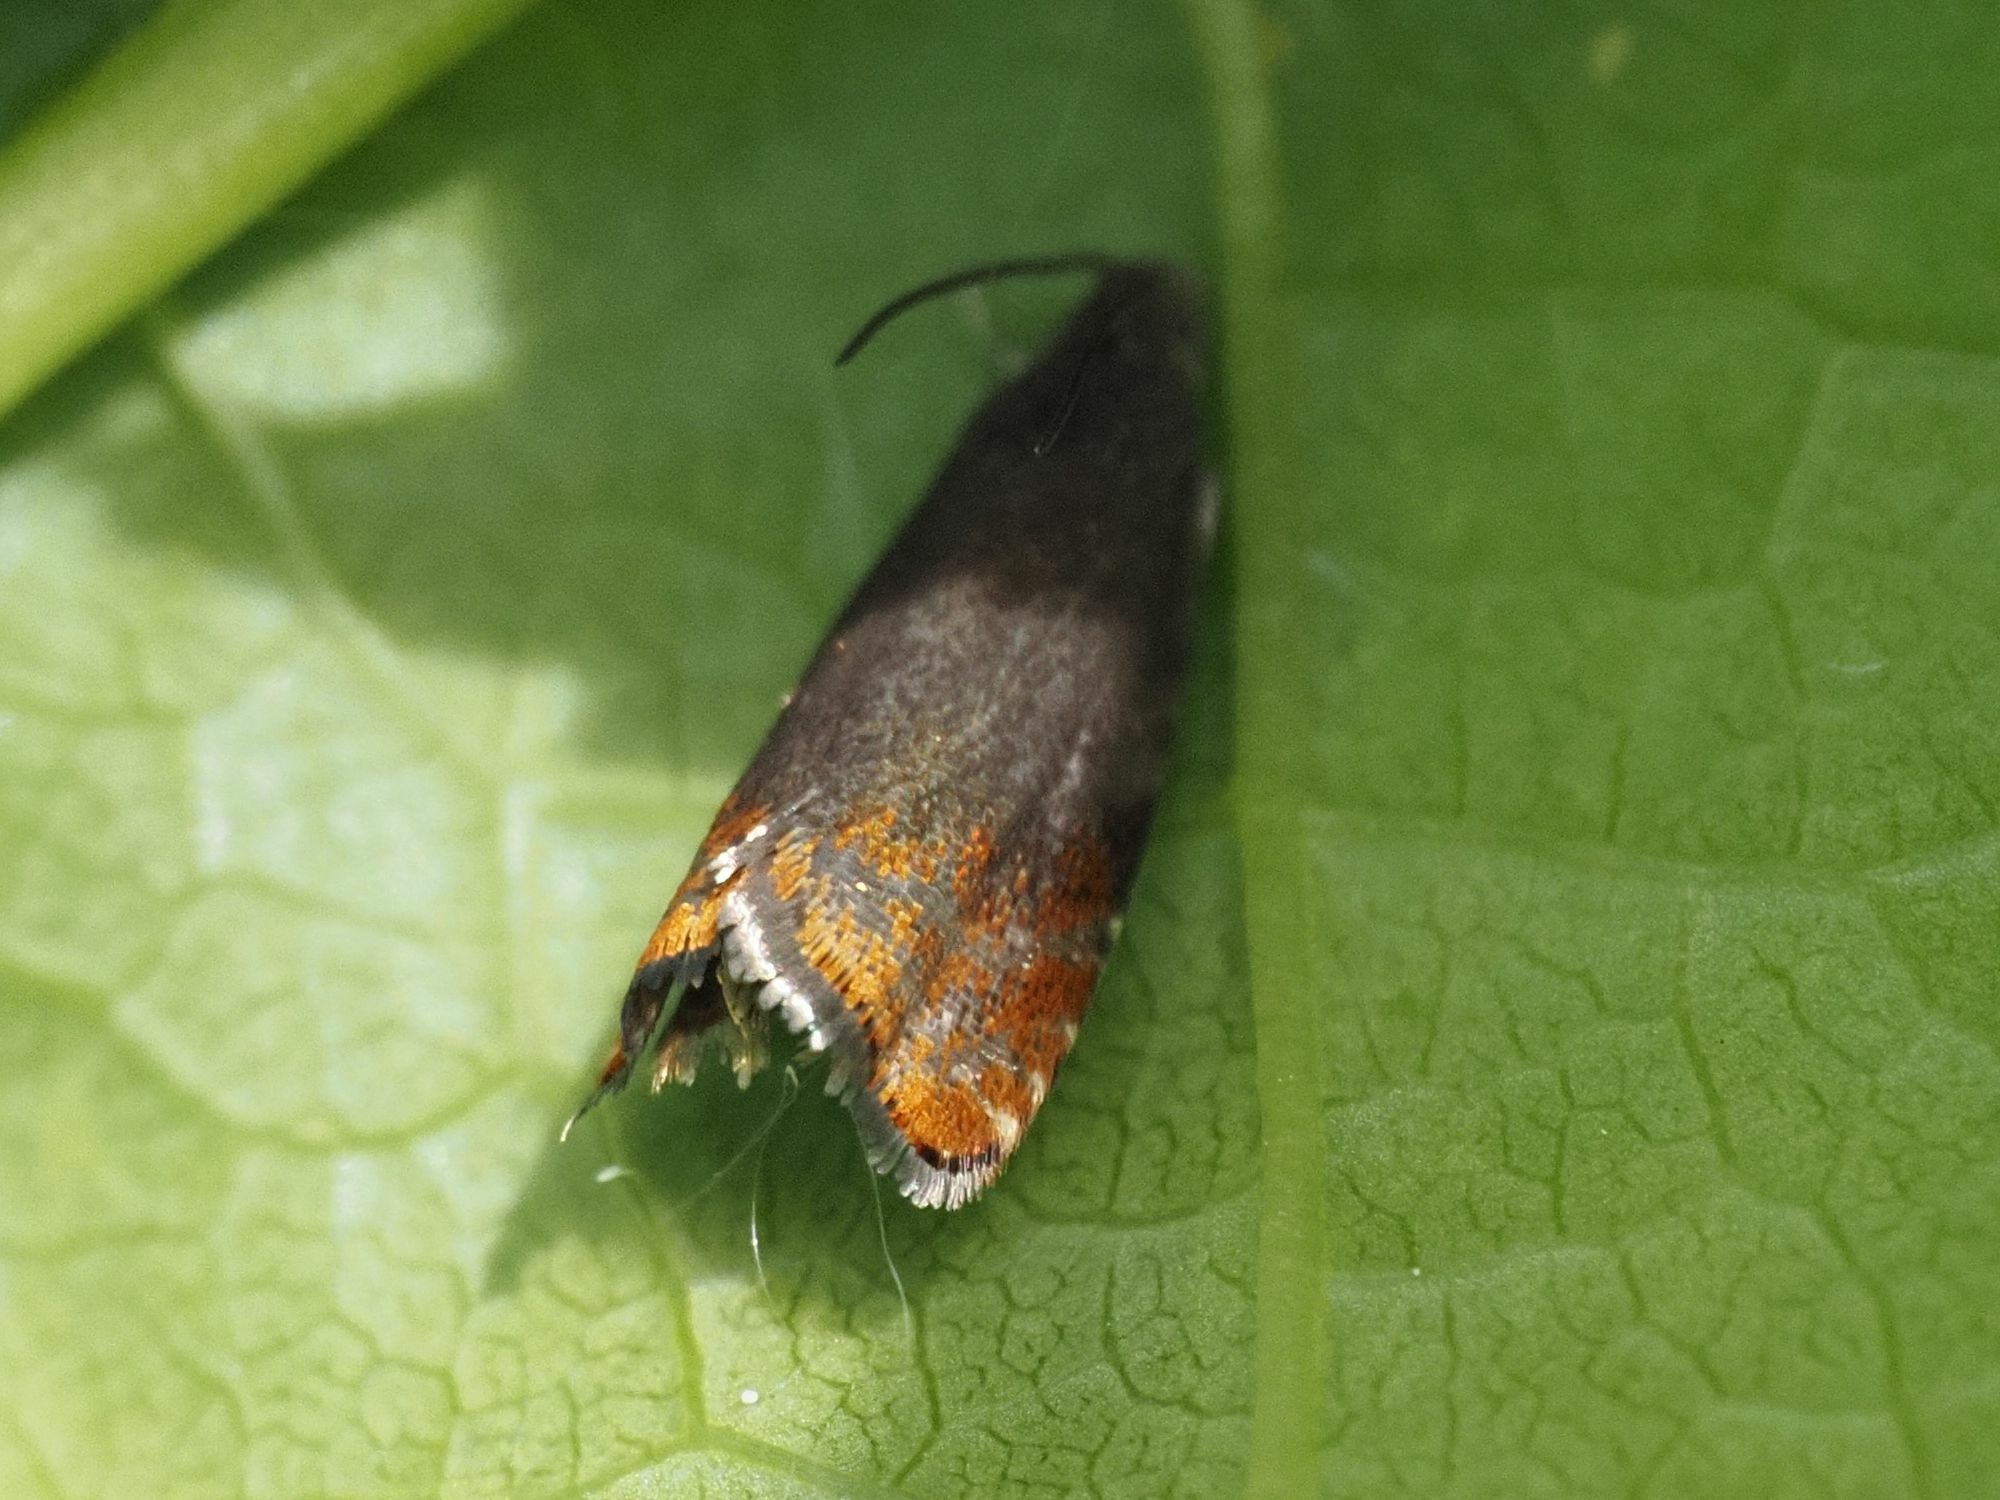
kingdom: Animalia
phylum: Arthropoda
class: Insecta
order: Lepidoptera
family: Tortricidae
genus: Pammene
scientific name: Pammene rhediella
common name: Fruitlet-mining tortrix
